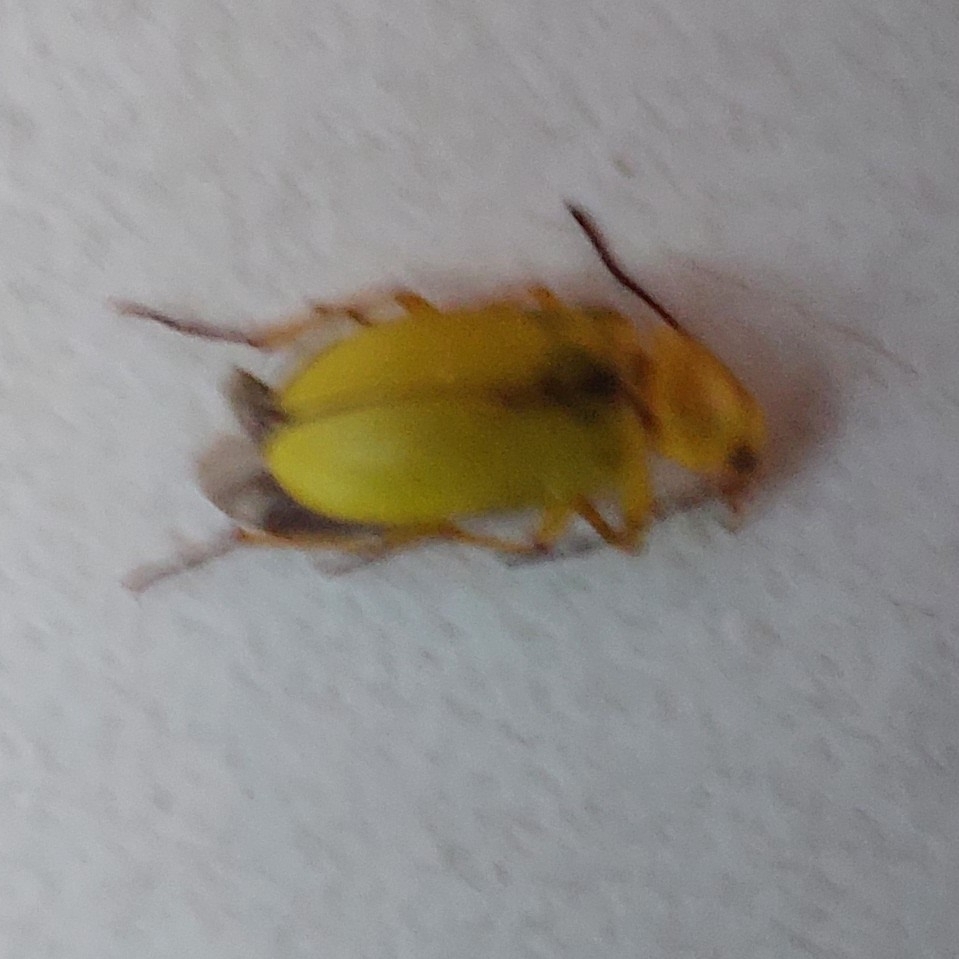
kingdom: Animalia
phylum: Arthropoda
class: Insecta
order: Coleoptera
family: Tenebrionidae
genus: Cteniopus
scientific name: Cteniopus sulphureus
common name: Sulphur beetle
